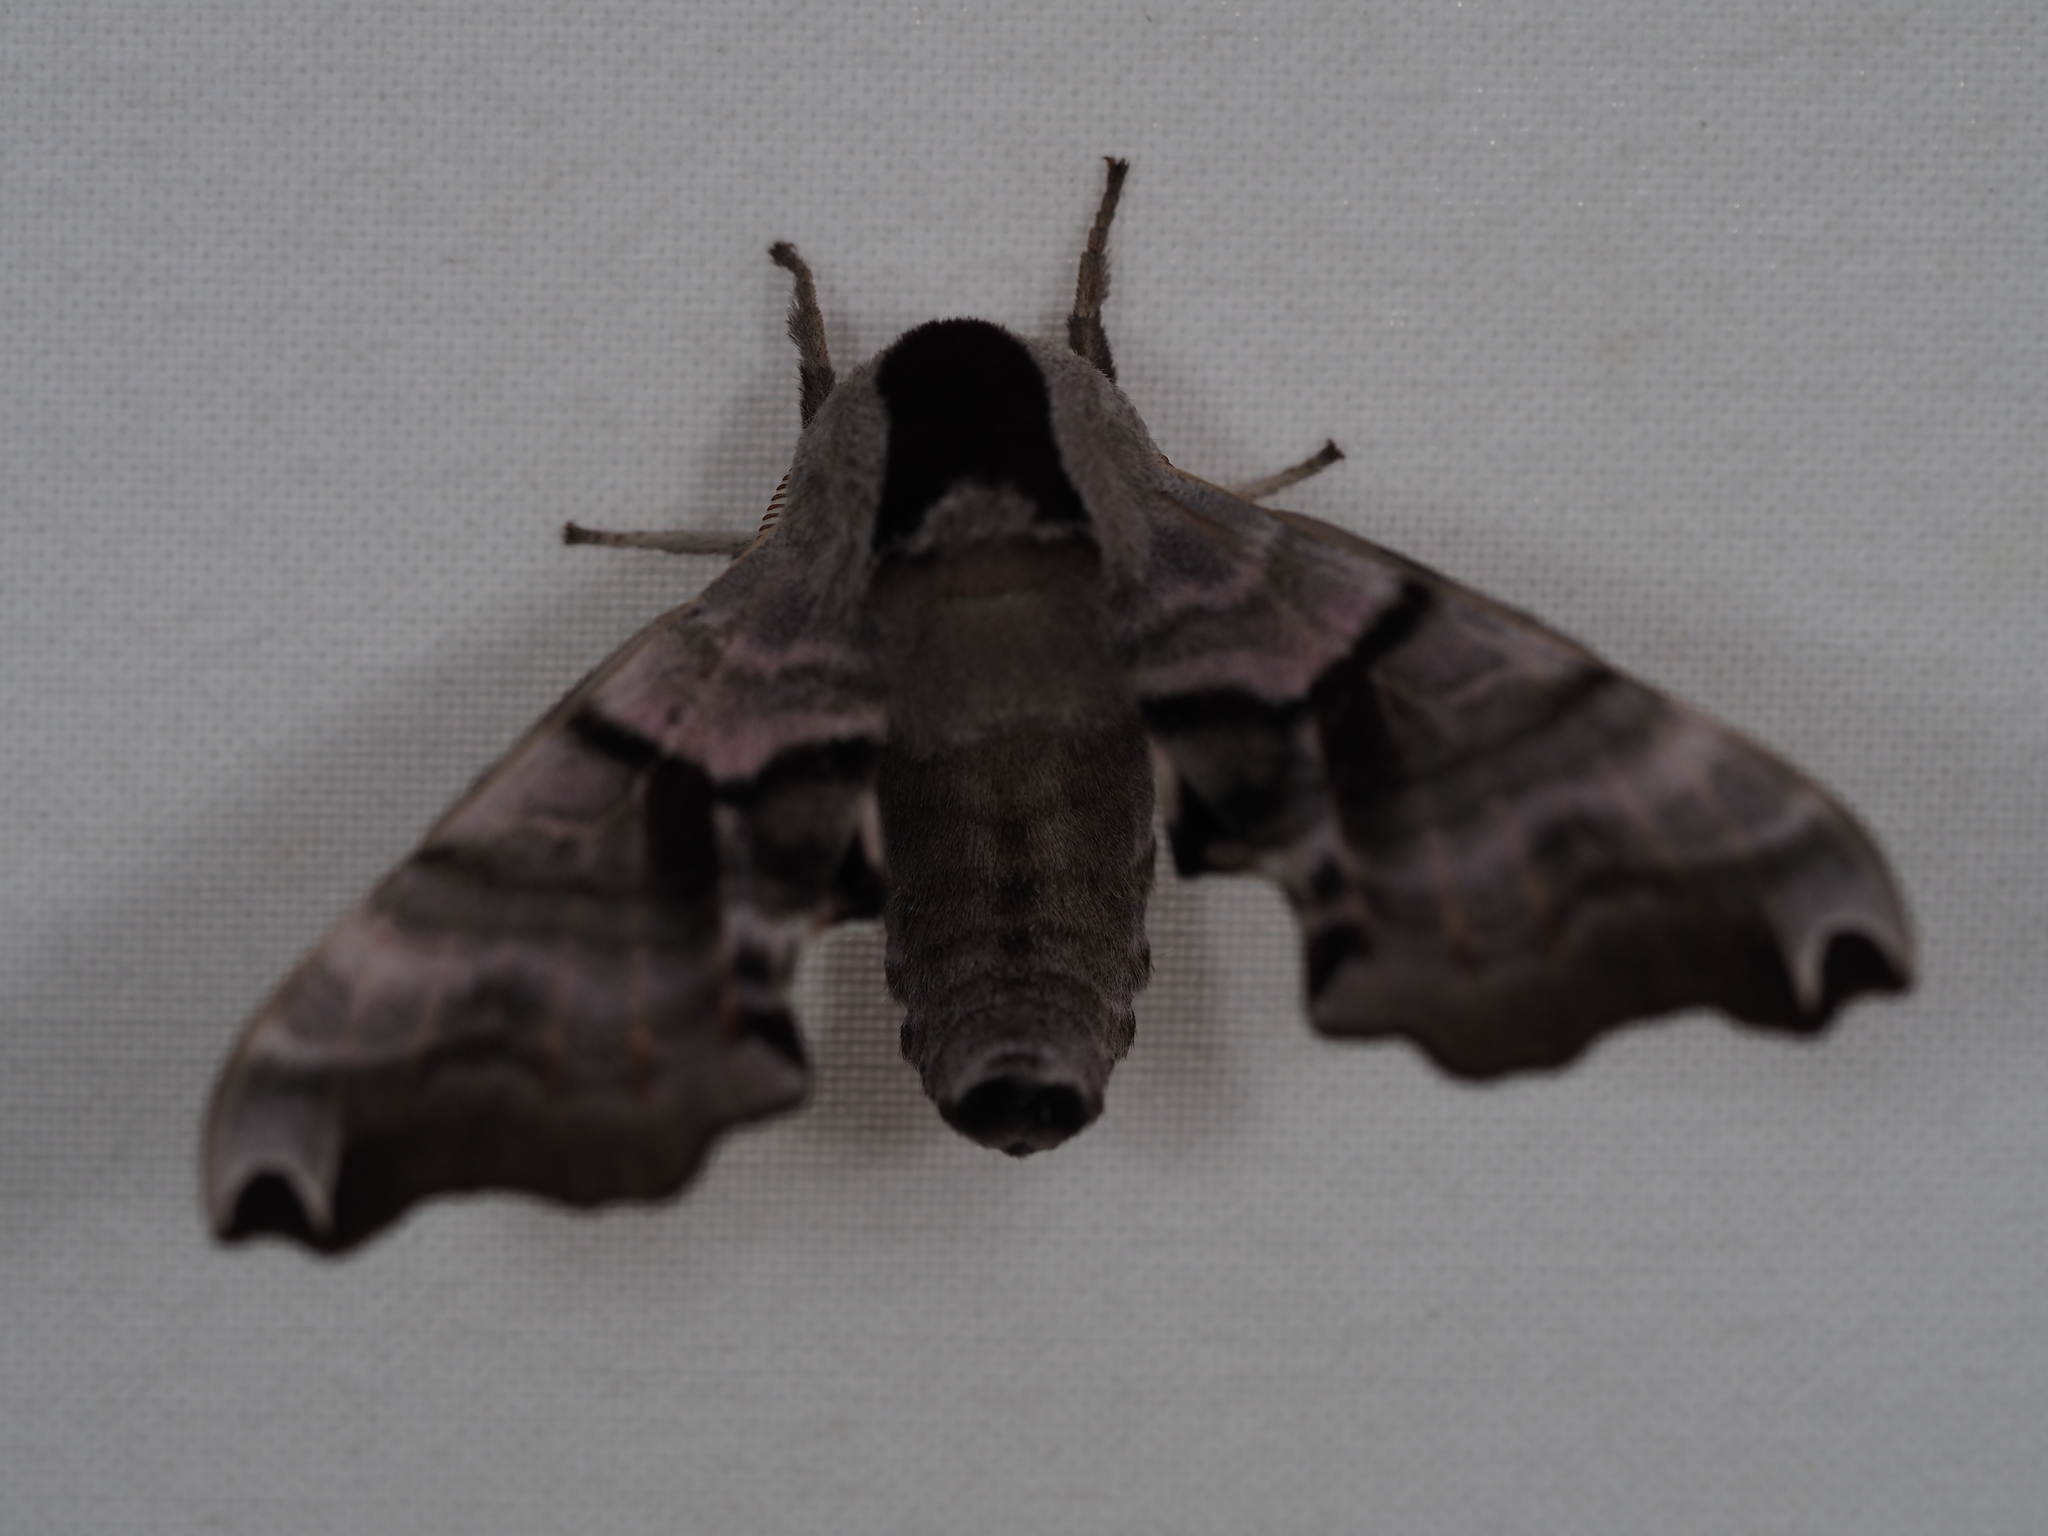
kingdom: Animalia
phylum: Arthropoda
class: Insecta
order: Lepidoptera
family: Sphingidae
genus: Smerinthus
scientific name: Smerinthus jamaicensis
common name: Twin spotted sphinx
